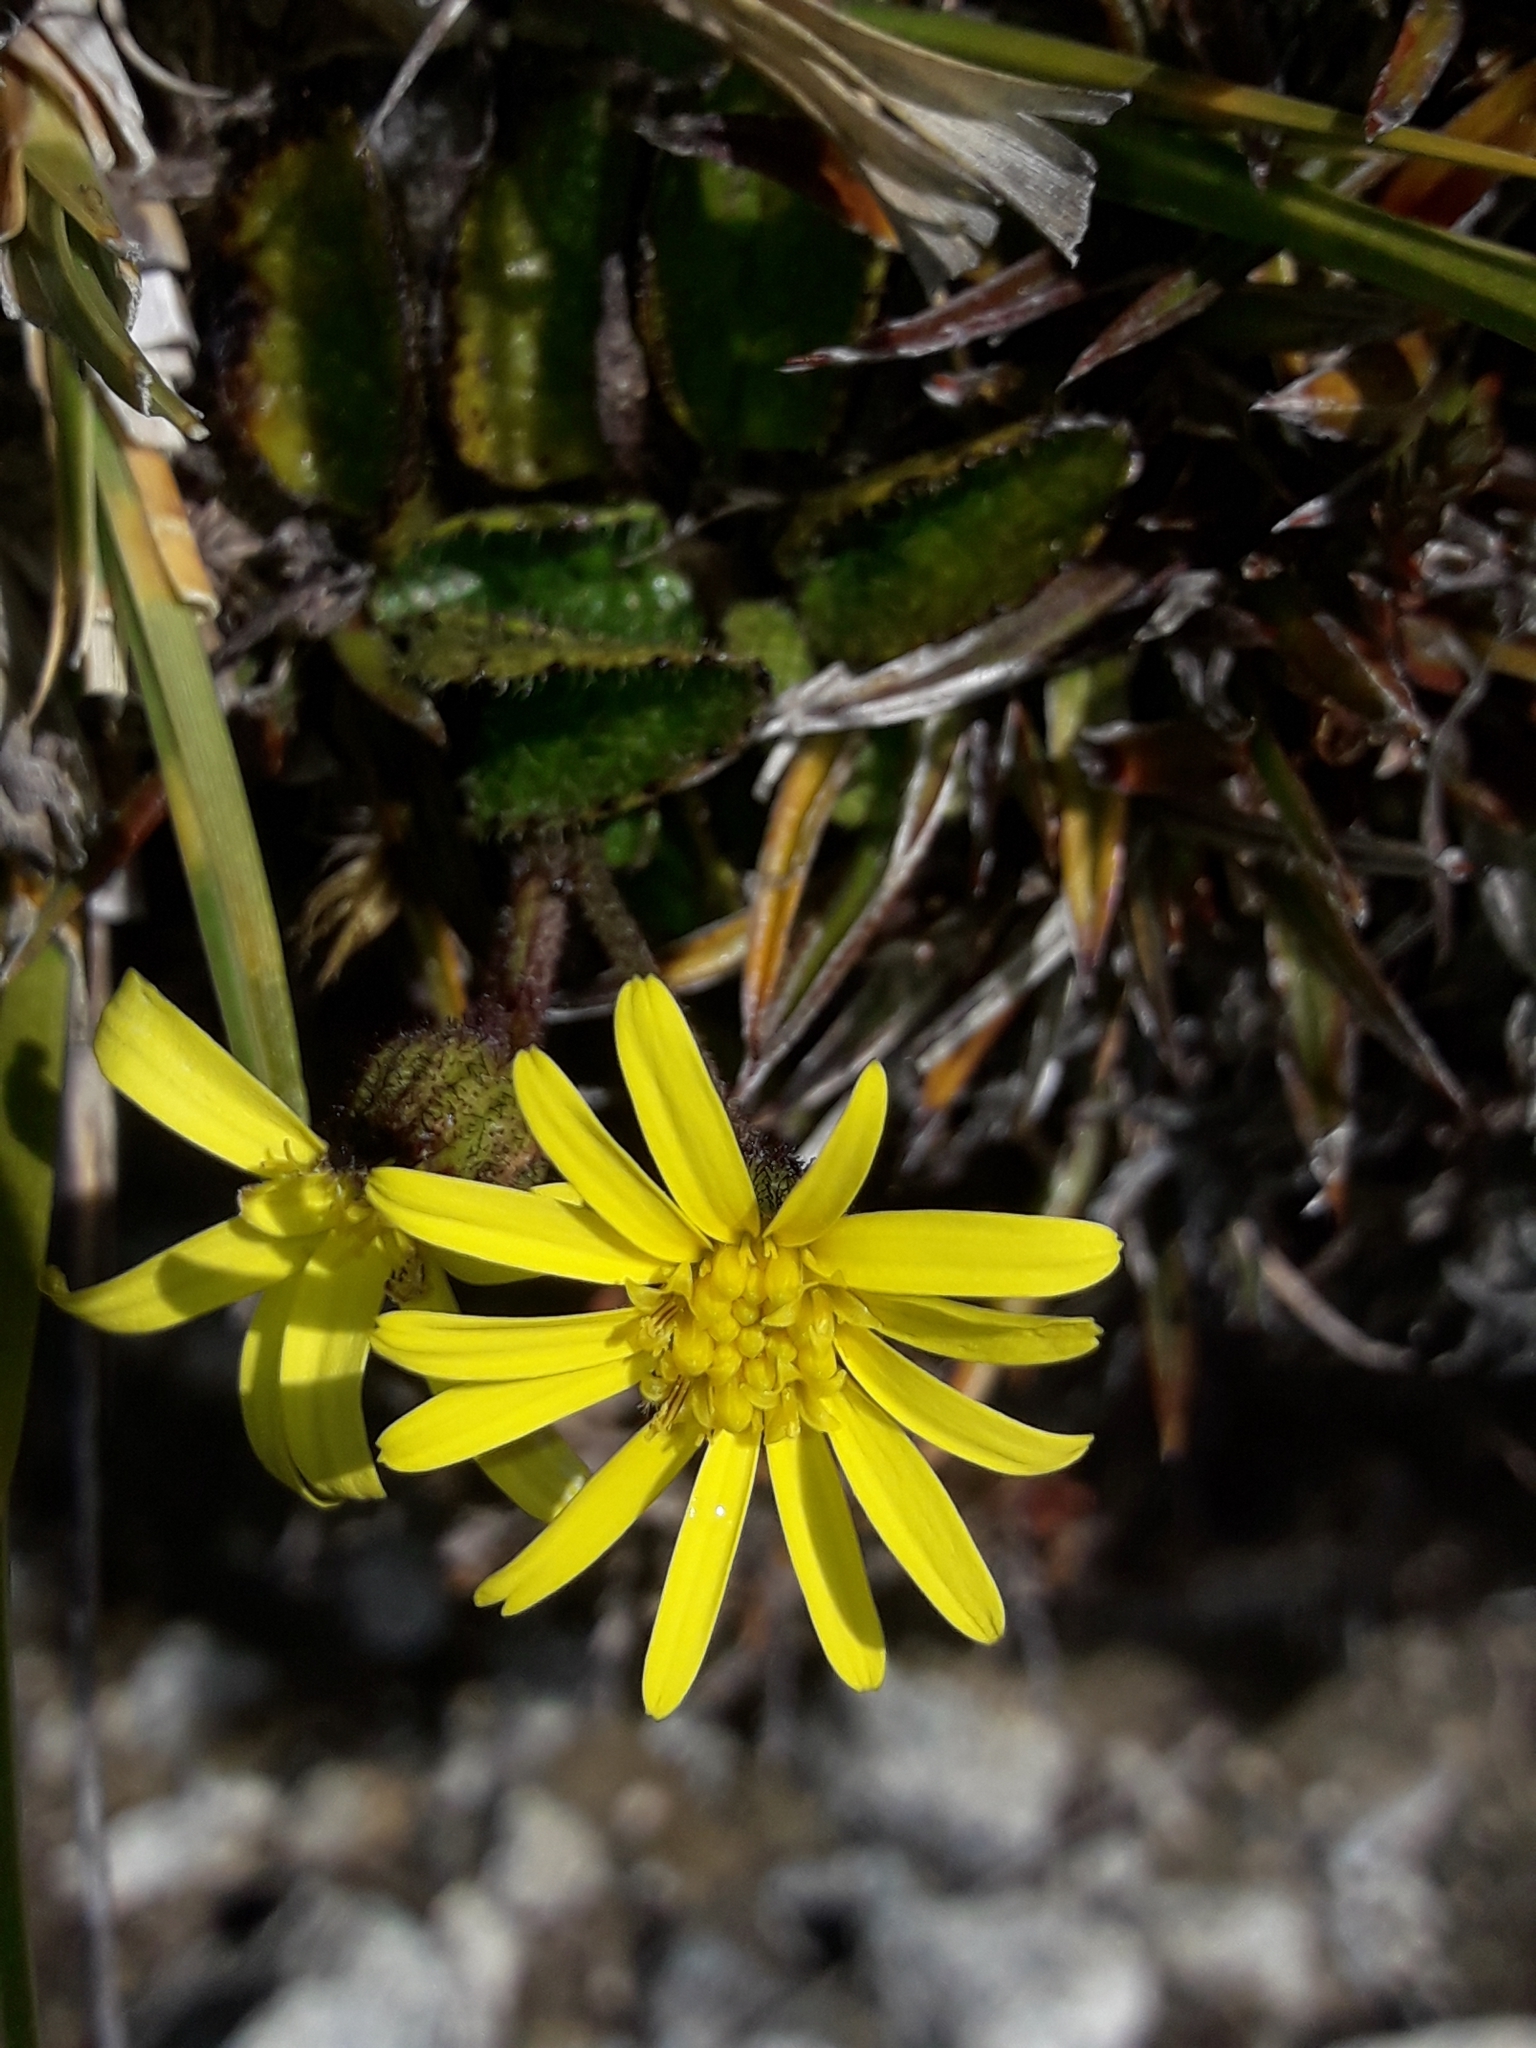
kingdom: Plantae
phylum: Tracheophyta
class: Magnoliopsida
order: Asterales
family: Asteraceae
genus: Brachyglottis
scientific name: Brachyglottis bellidioides
